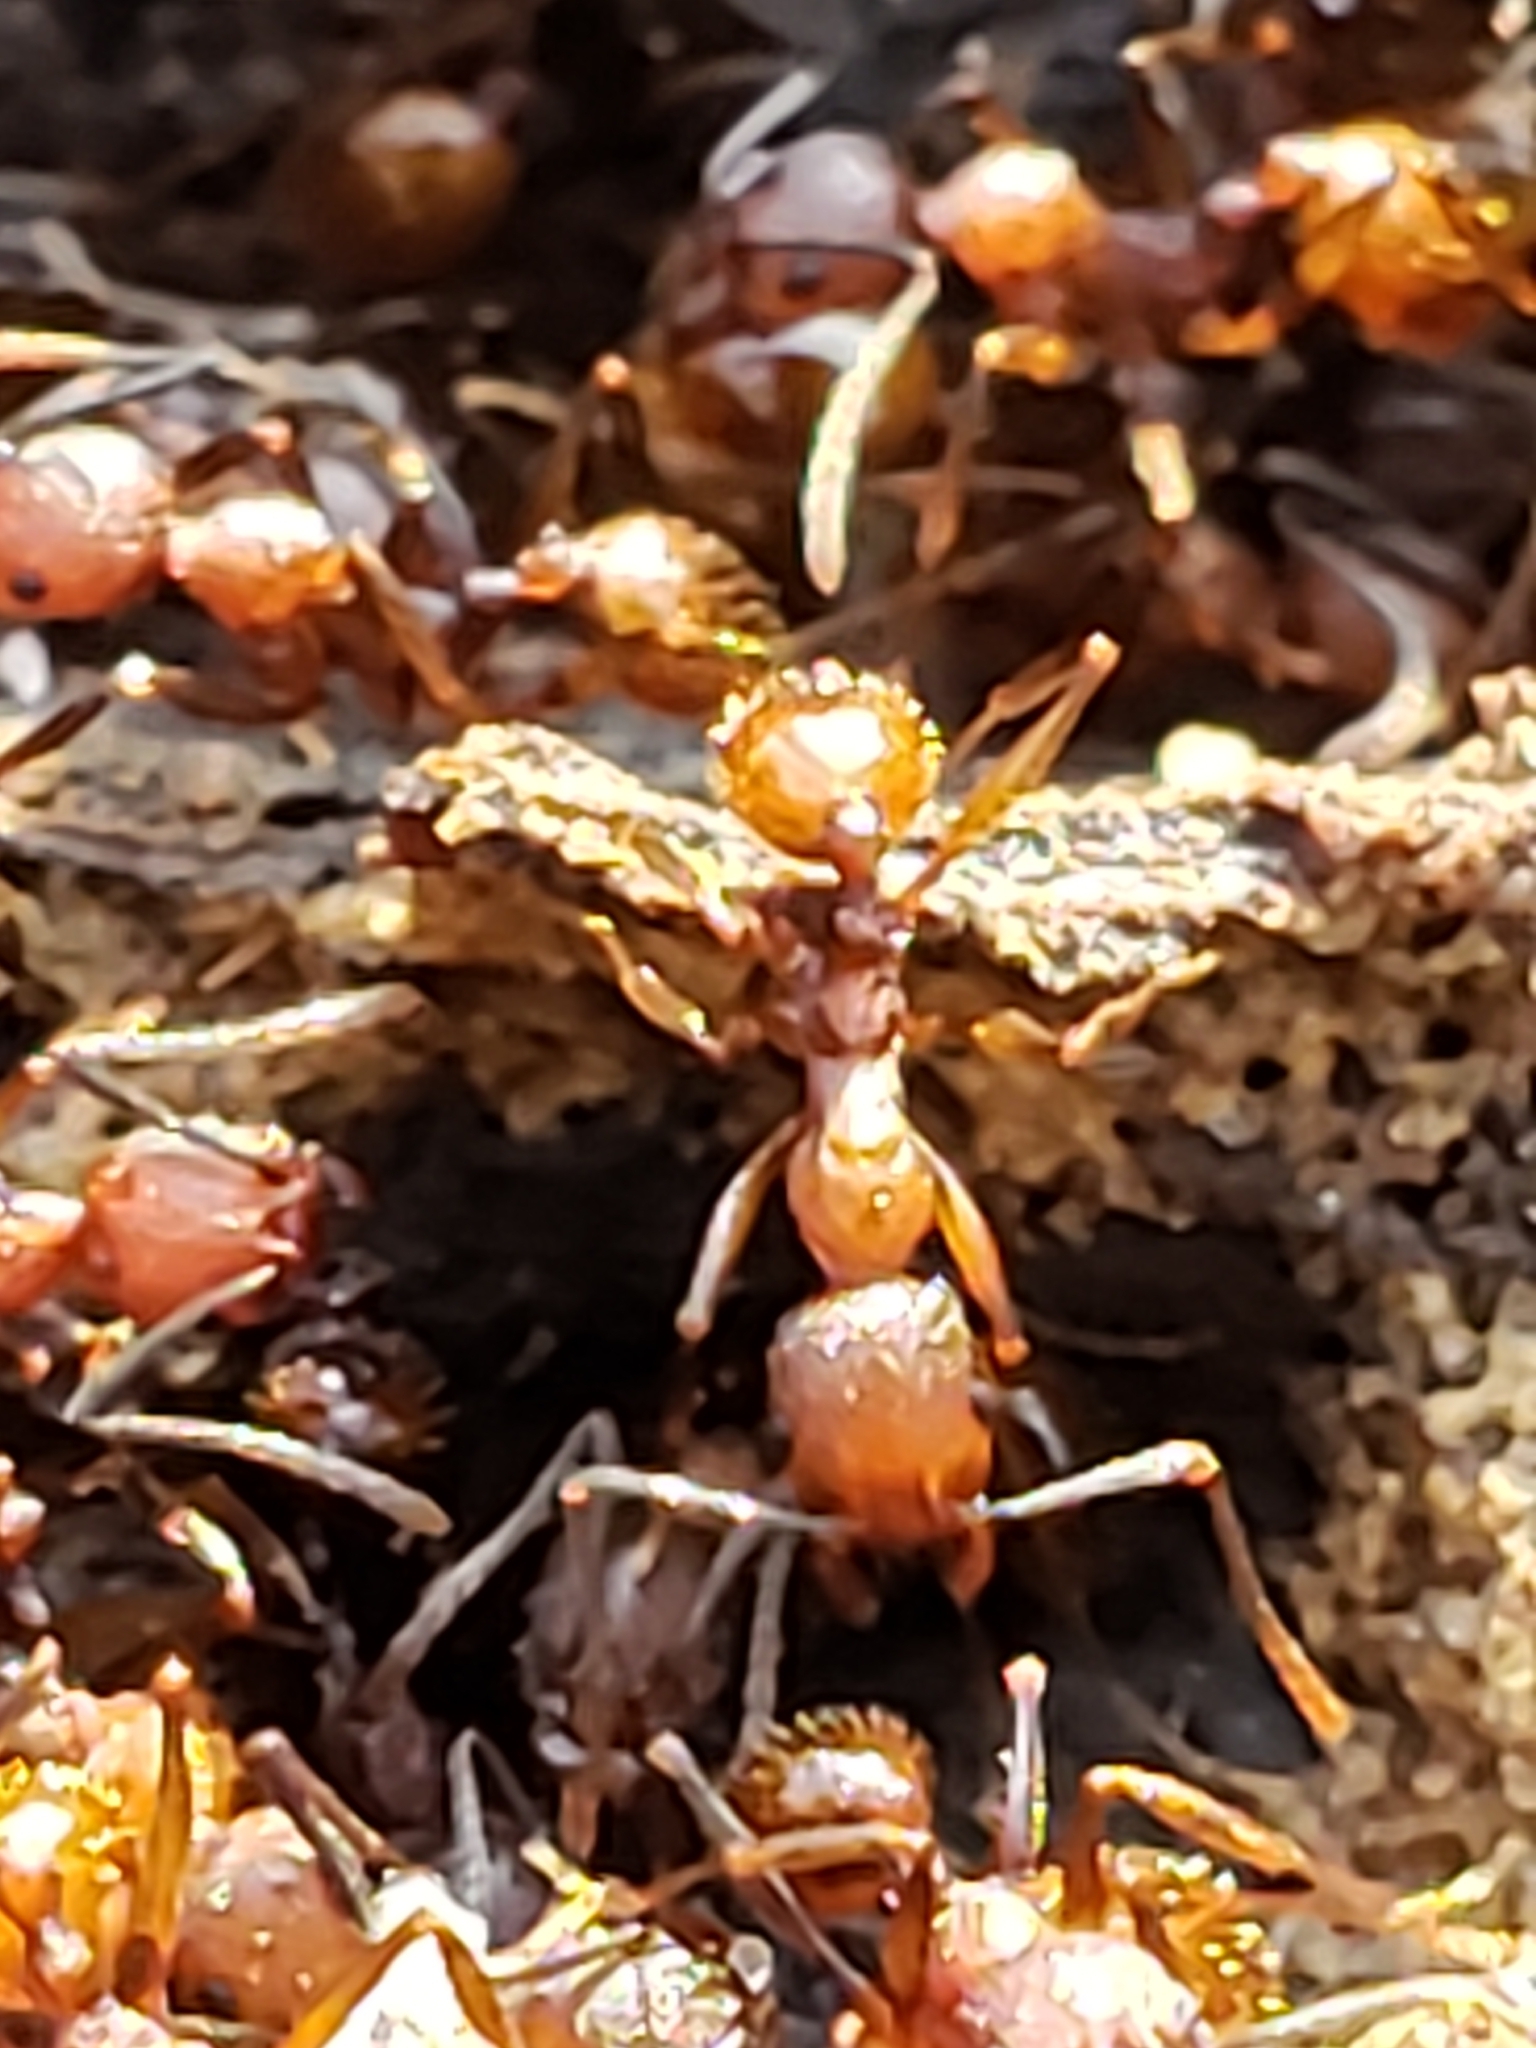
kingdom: Animalia
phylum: Arthropoda
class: Insecta
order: Hymenoptera
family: Formicidae
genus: Aphaenogaster
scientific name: Aphaenogaster tennesseensis
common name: Tennessee thread-waisted ant
